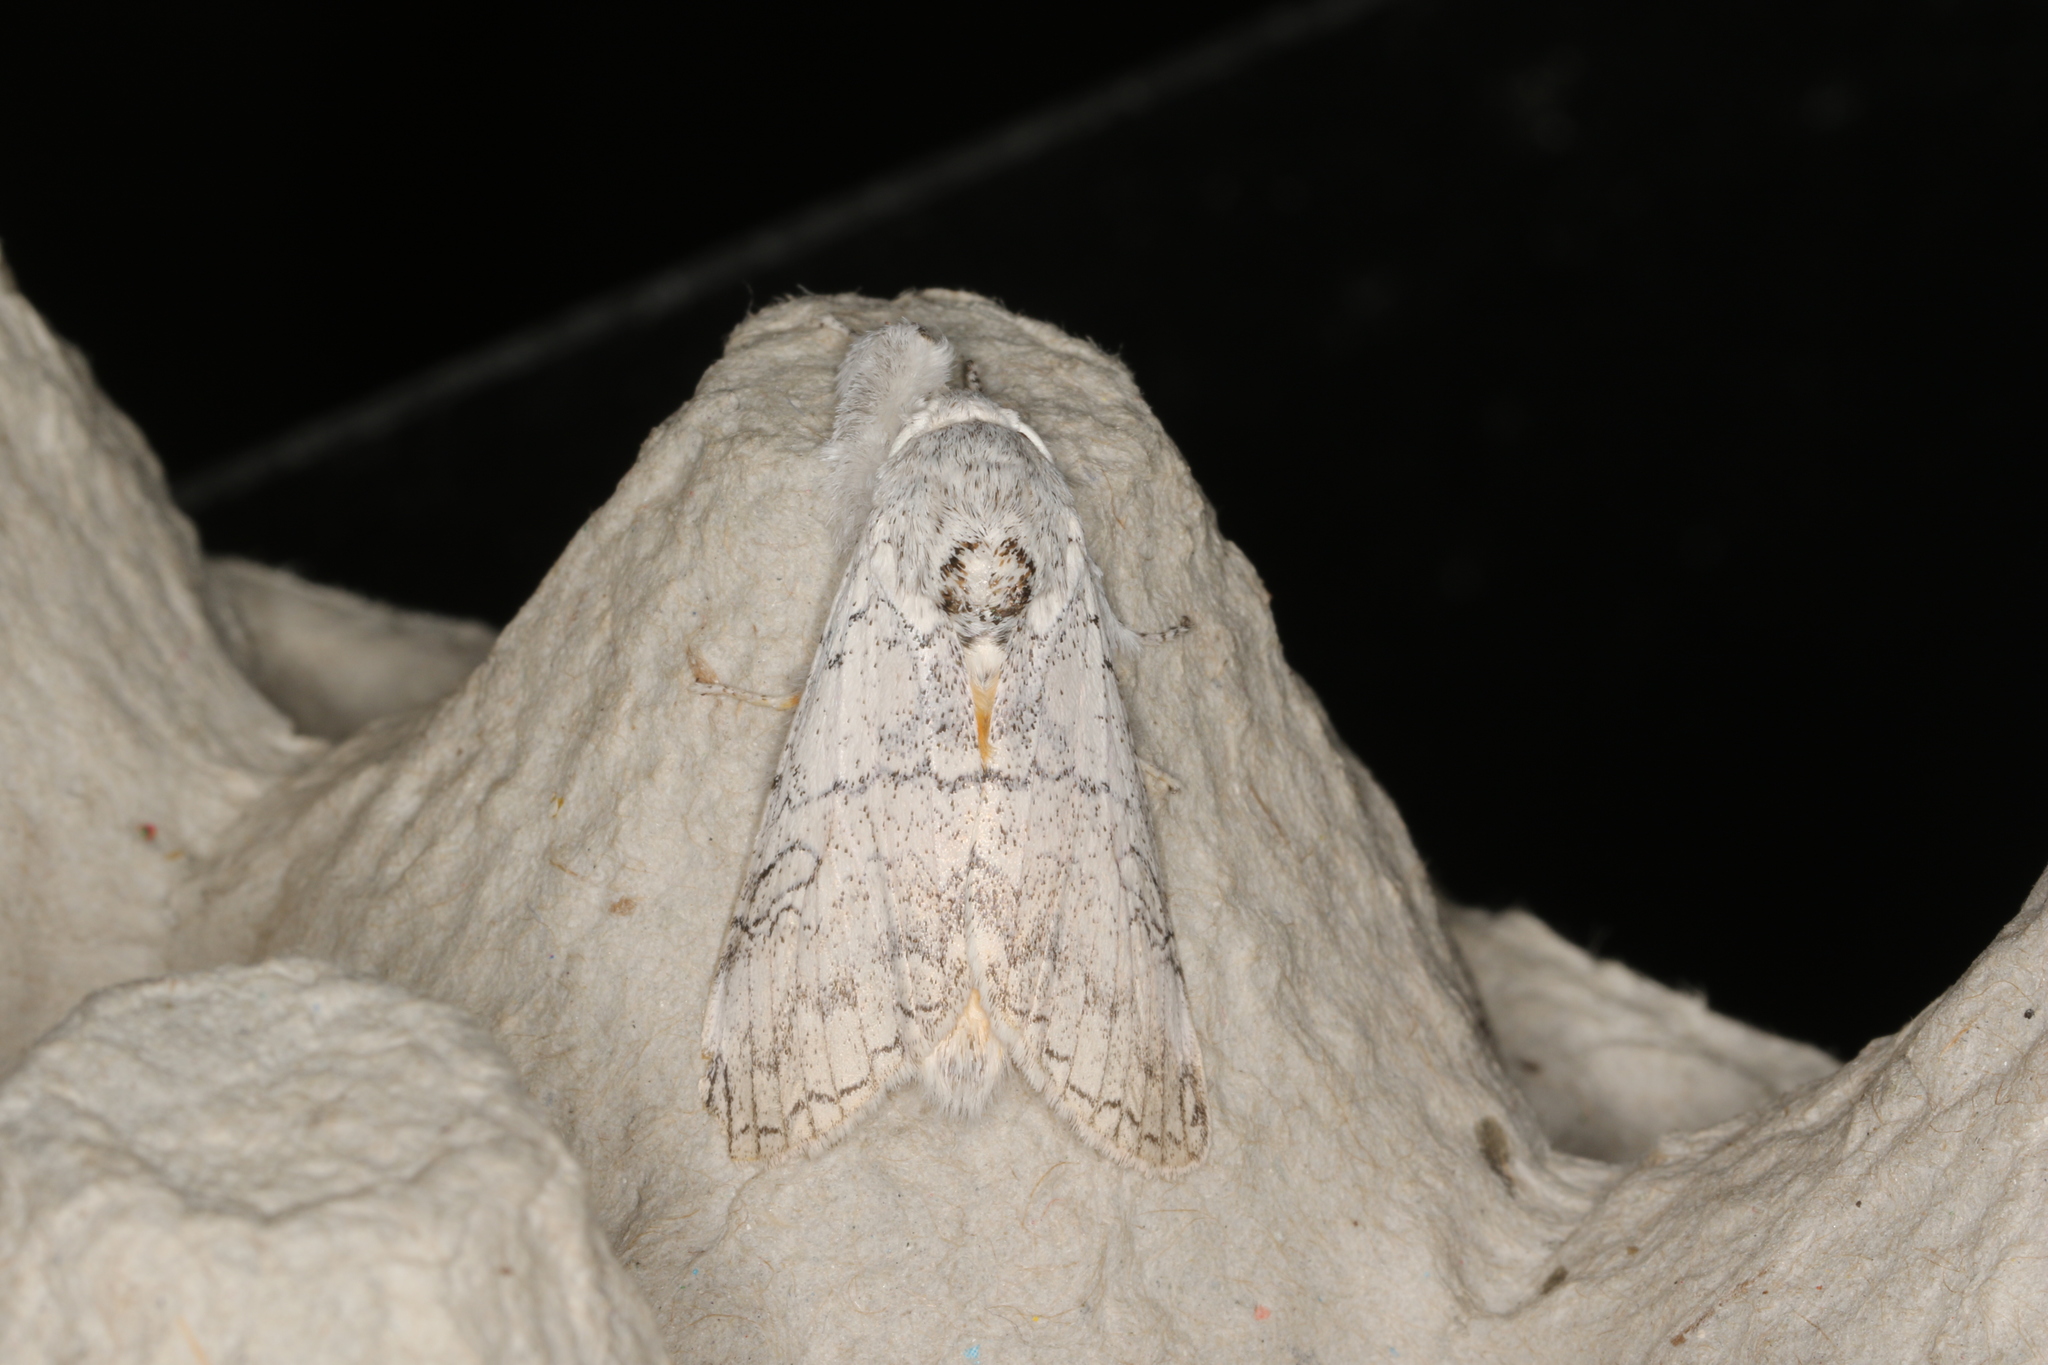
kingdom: Animalia
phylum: Arthropoda
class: Insecta
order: Lepidoptera
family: Erebidae
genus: Calliteara
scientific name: Calliteara farenoides
